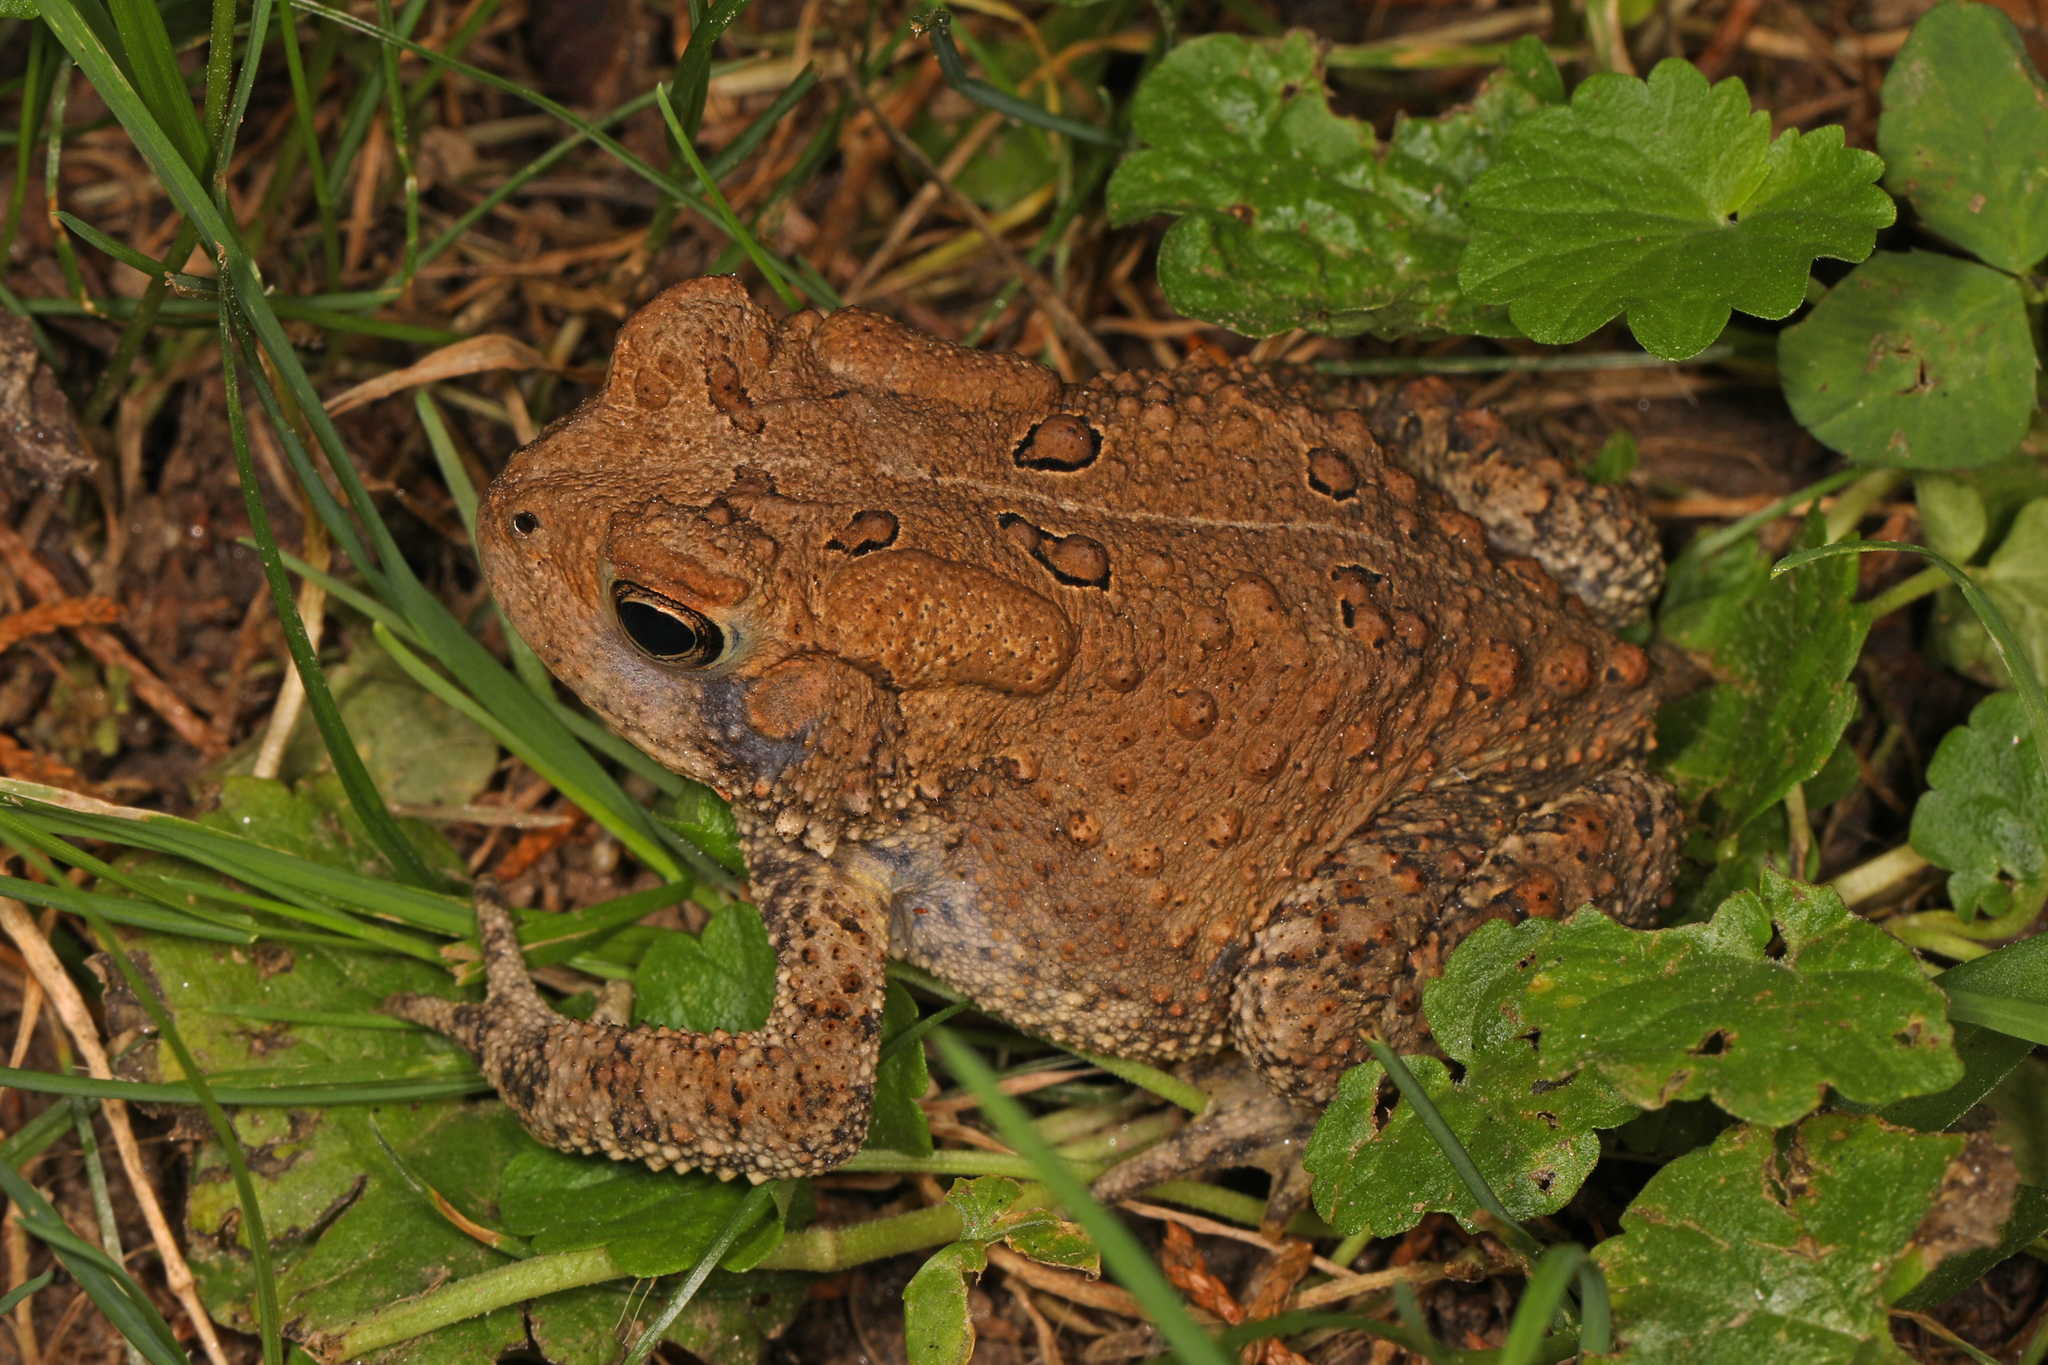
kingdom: Animalia
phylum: Chordata
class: Amphibia
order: Anura
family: Bufonidae
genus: Anaxyrus
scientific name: Anaxyrus americanus
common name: American toad
